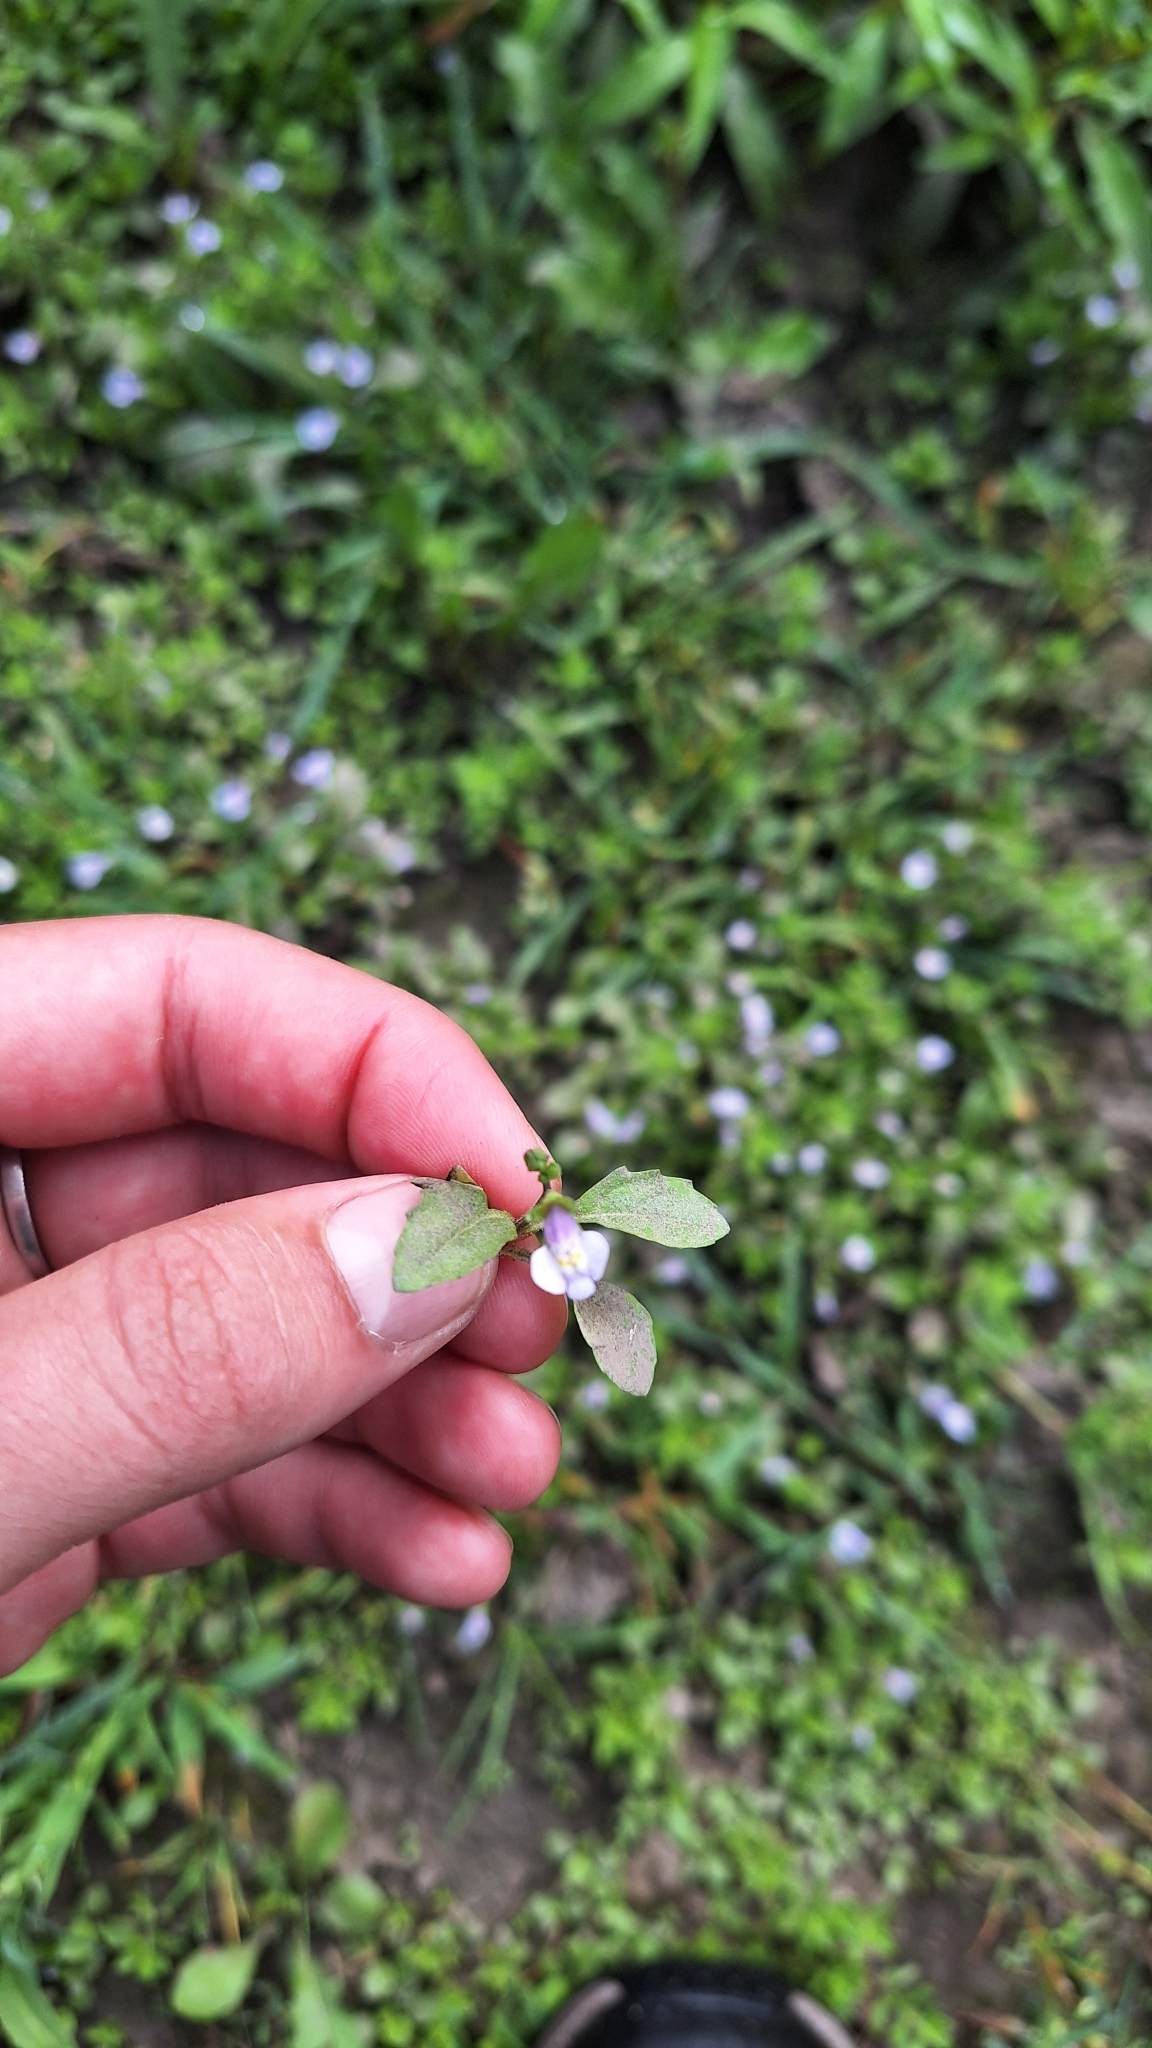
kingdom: Plantae
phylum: Tracheophyta
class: Magnoliopsida
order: Lamiales
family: Mazaceae
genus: Mazus
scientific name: Mazus pumilus
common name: Japanese mazus
